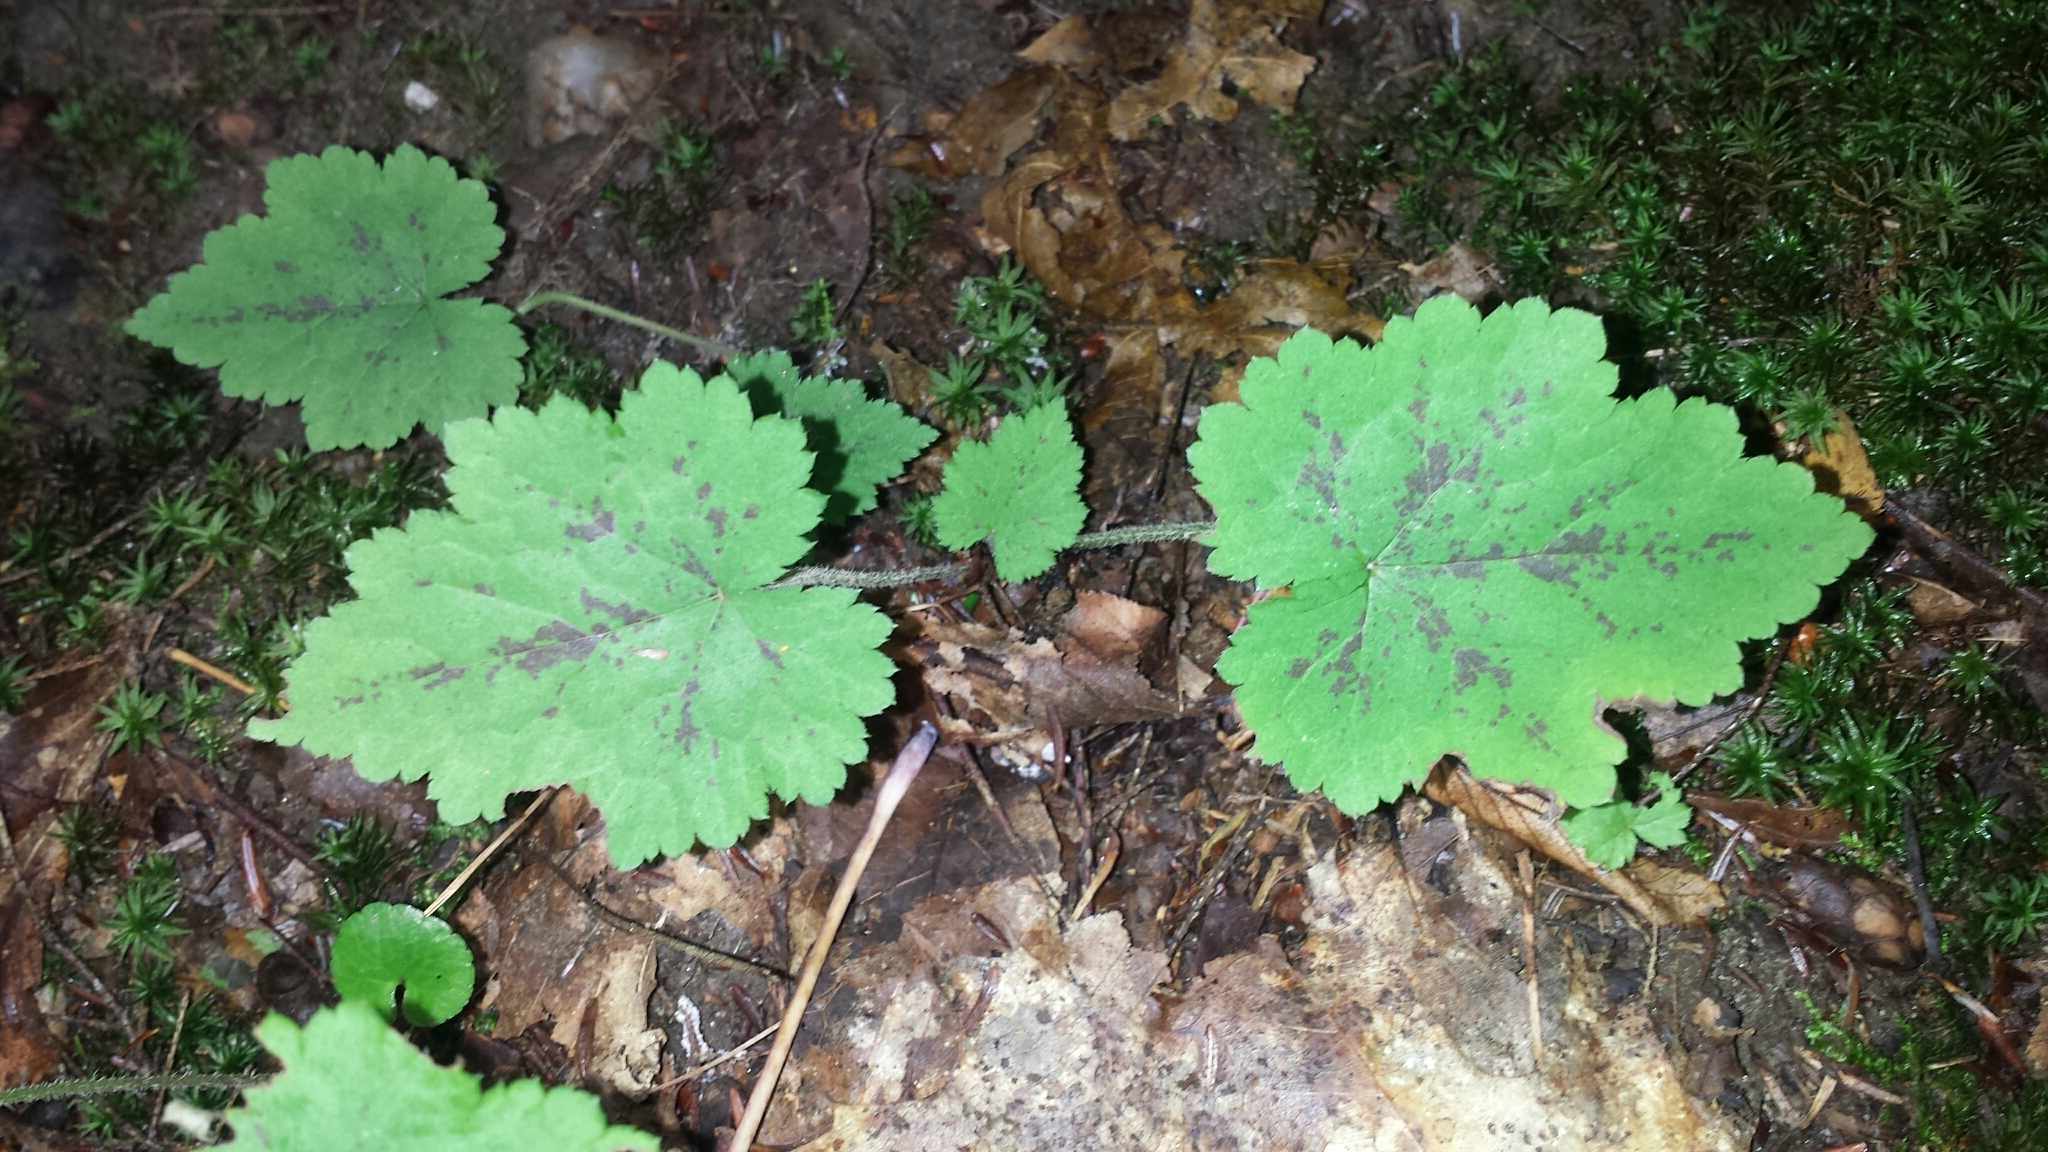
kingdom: Plantae
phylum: Tracheophyta
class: Magnoliopsida
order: Saxifragales
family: Saxifragaceae
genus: Tiarella
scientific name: Tiarella stolonifera
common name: Stoloniferous foamflower
